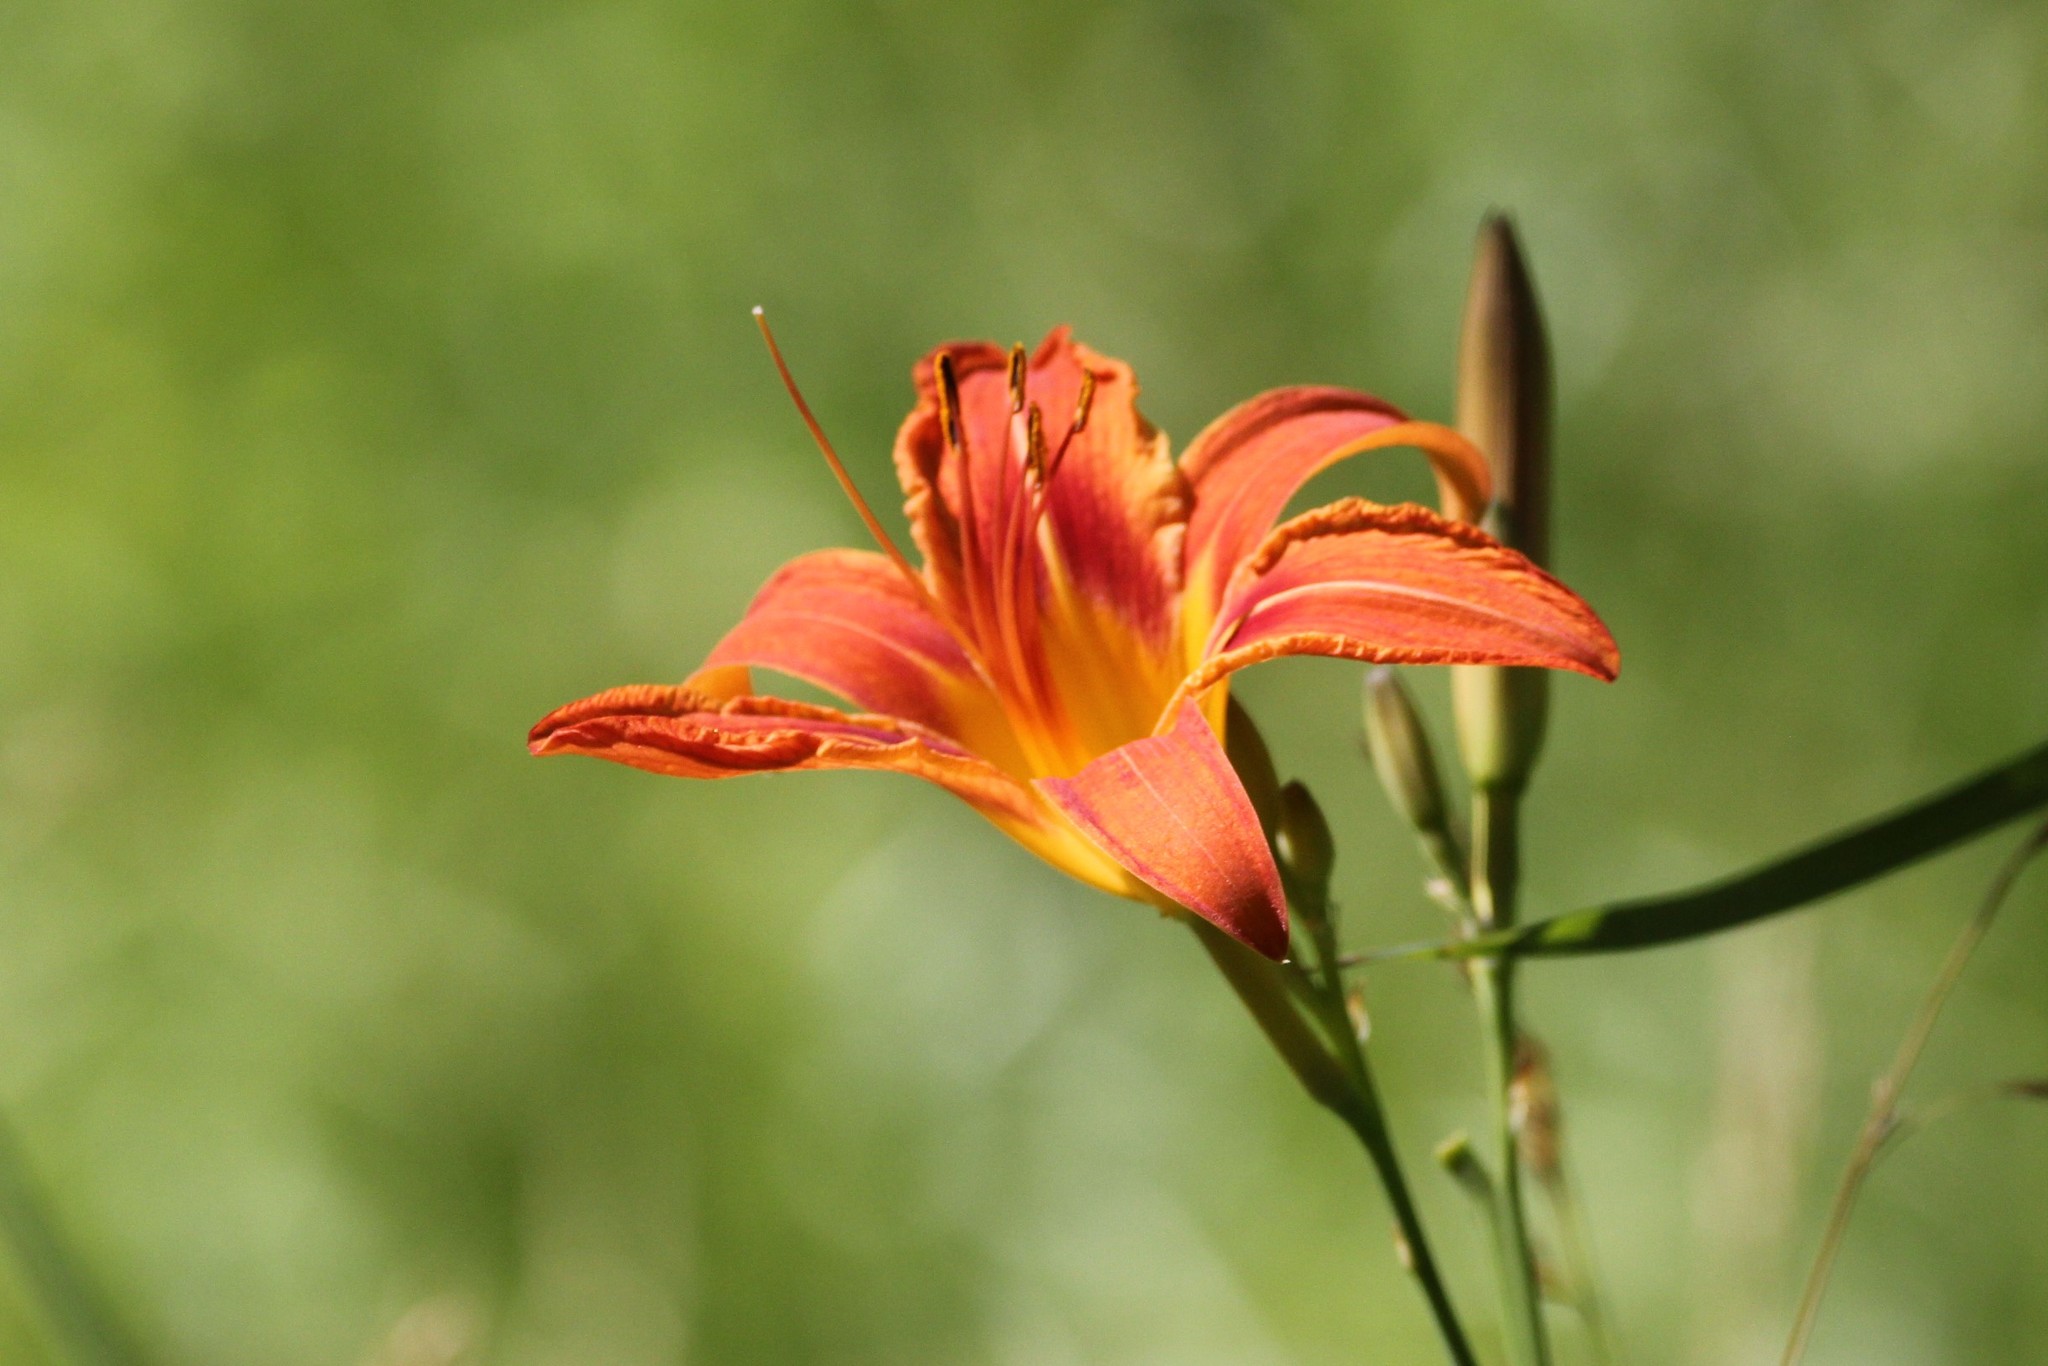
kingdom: Plantae
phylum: Tracheophyta
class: Liliopsida
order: Asparagales
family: Asphodelaceae
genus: Hemerocallis
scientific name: Hemerocallis fulva
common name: Orange day-lily
